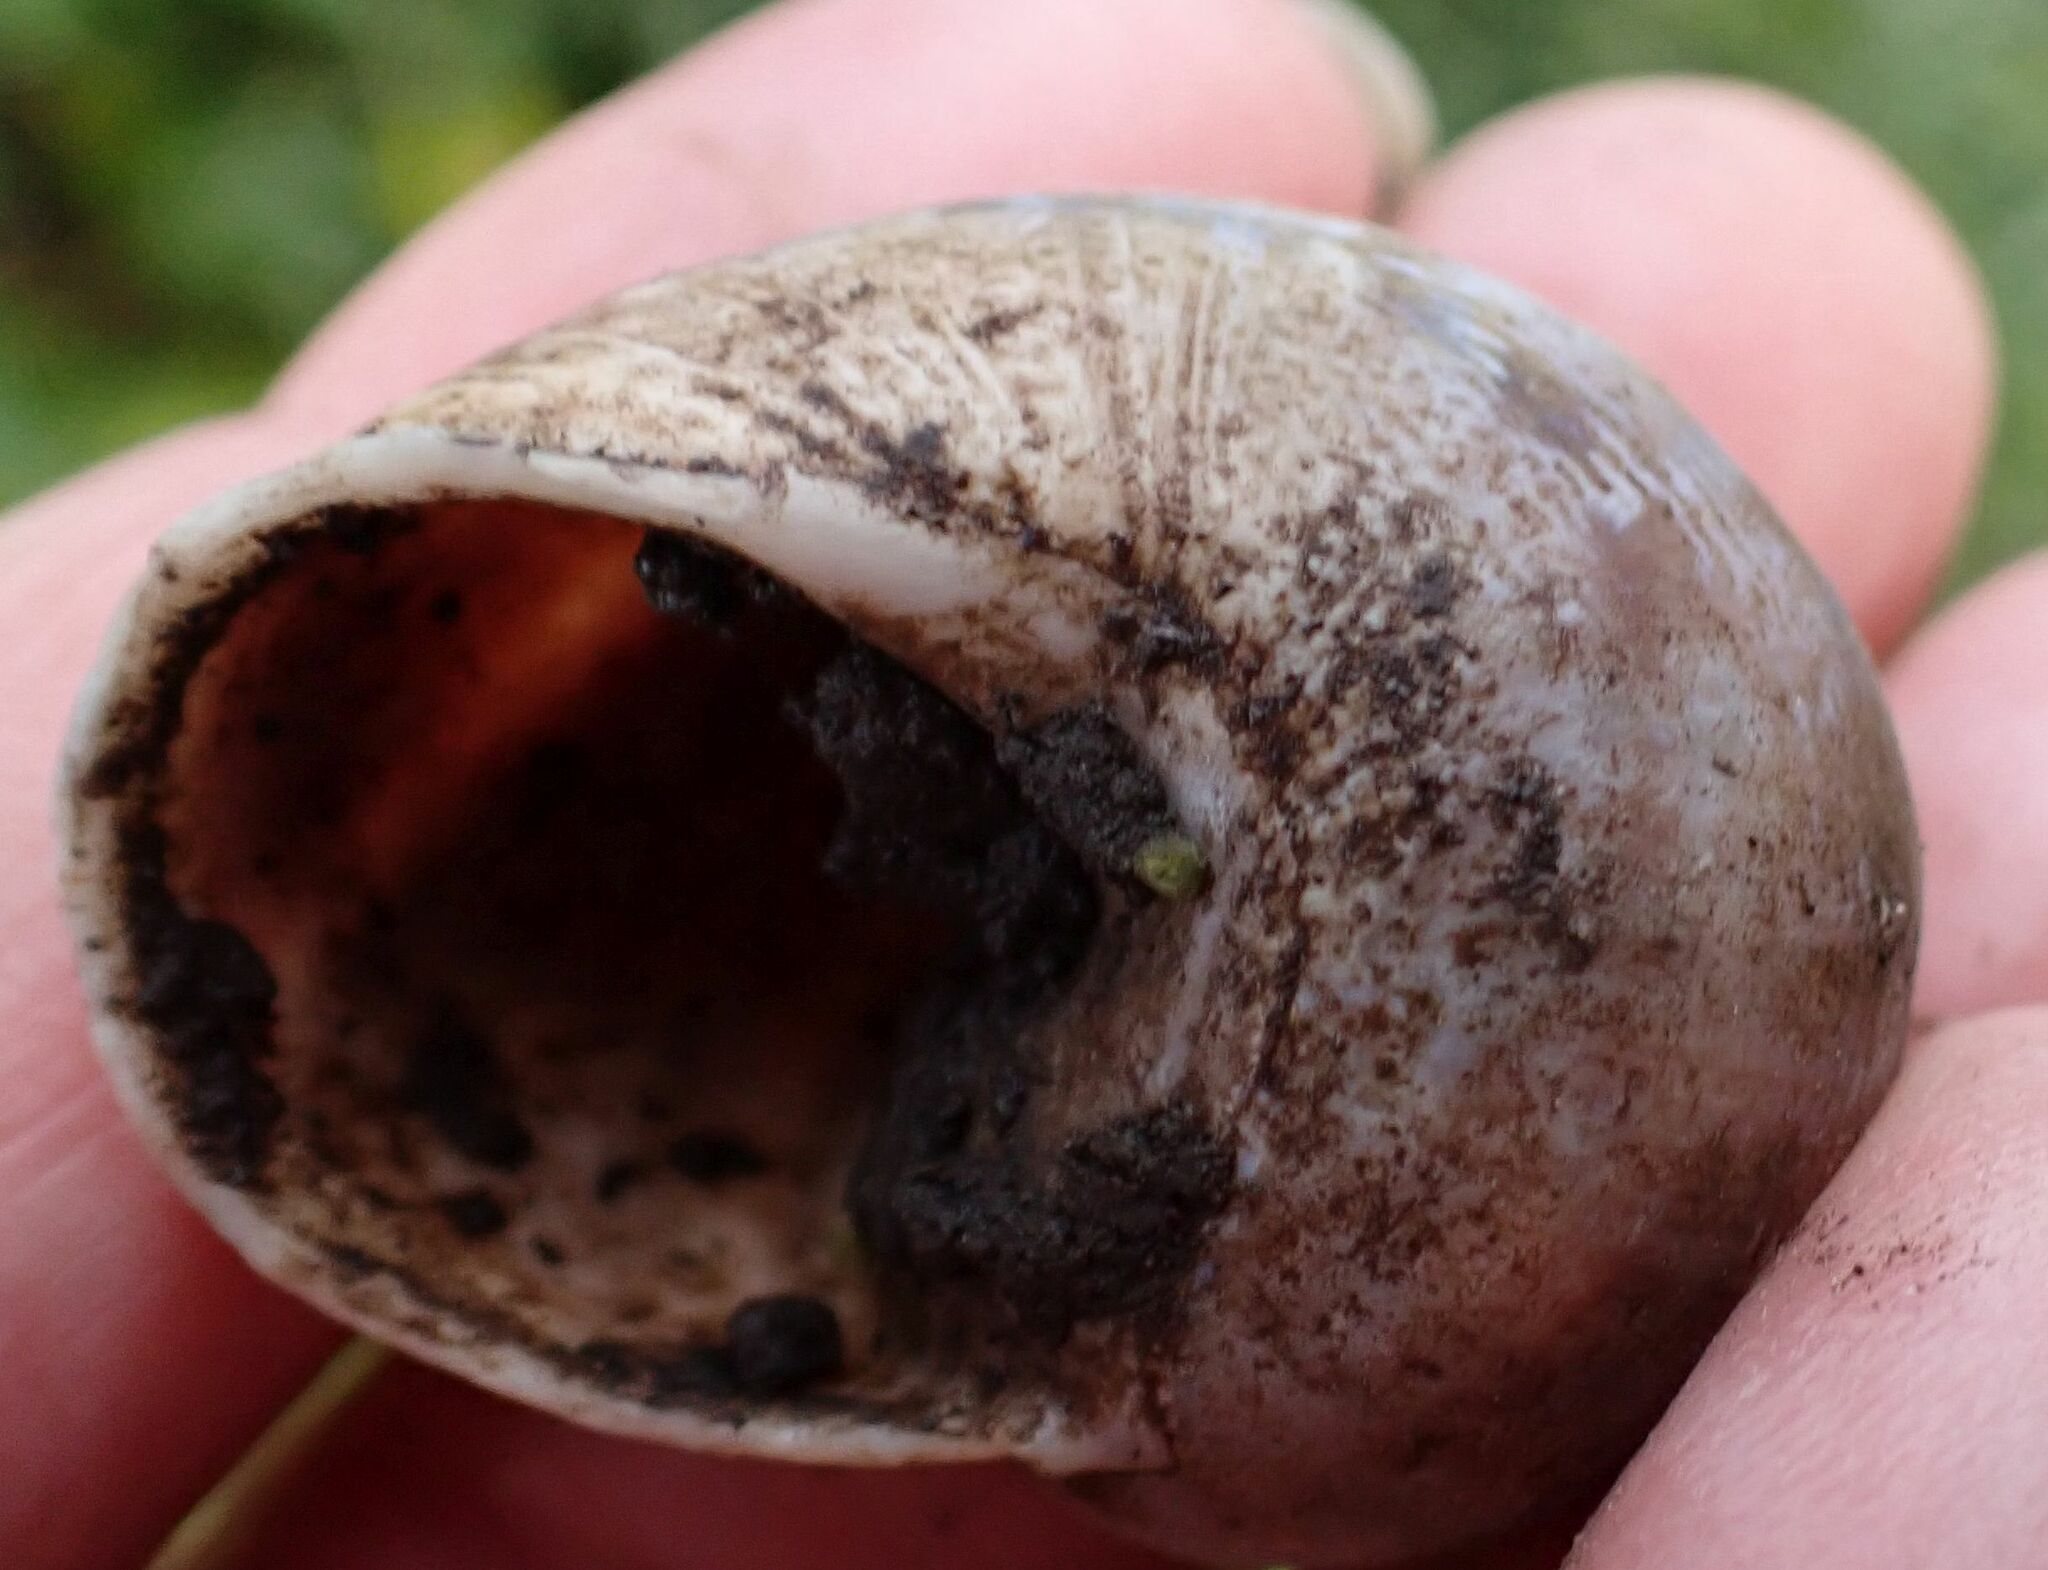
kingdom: Animalia
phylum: Mollusca
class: Gastropoda
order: Stylommatophora
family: Helicidae
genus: Cornu
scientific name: Cornu aspersum
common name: Brown garden snail
